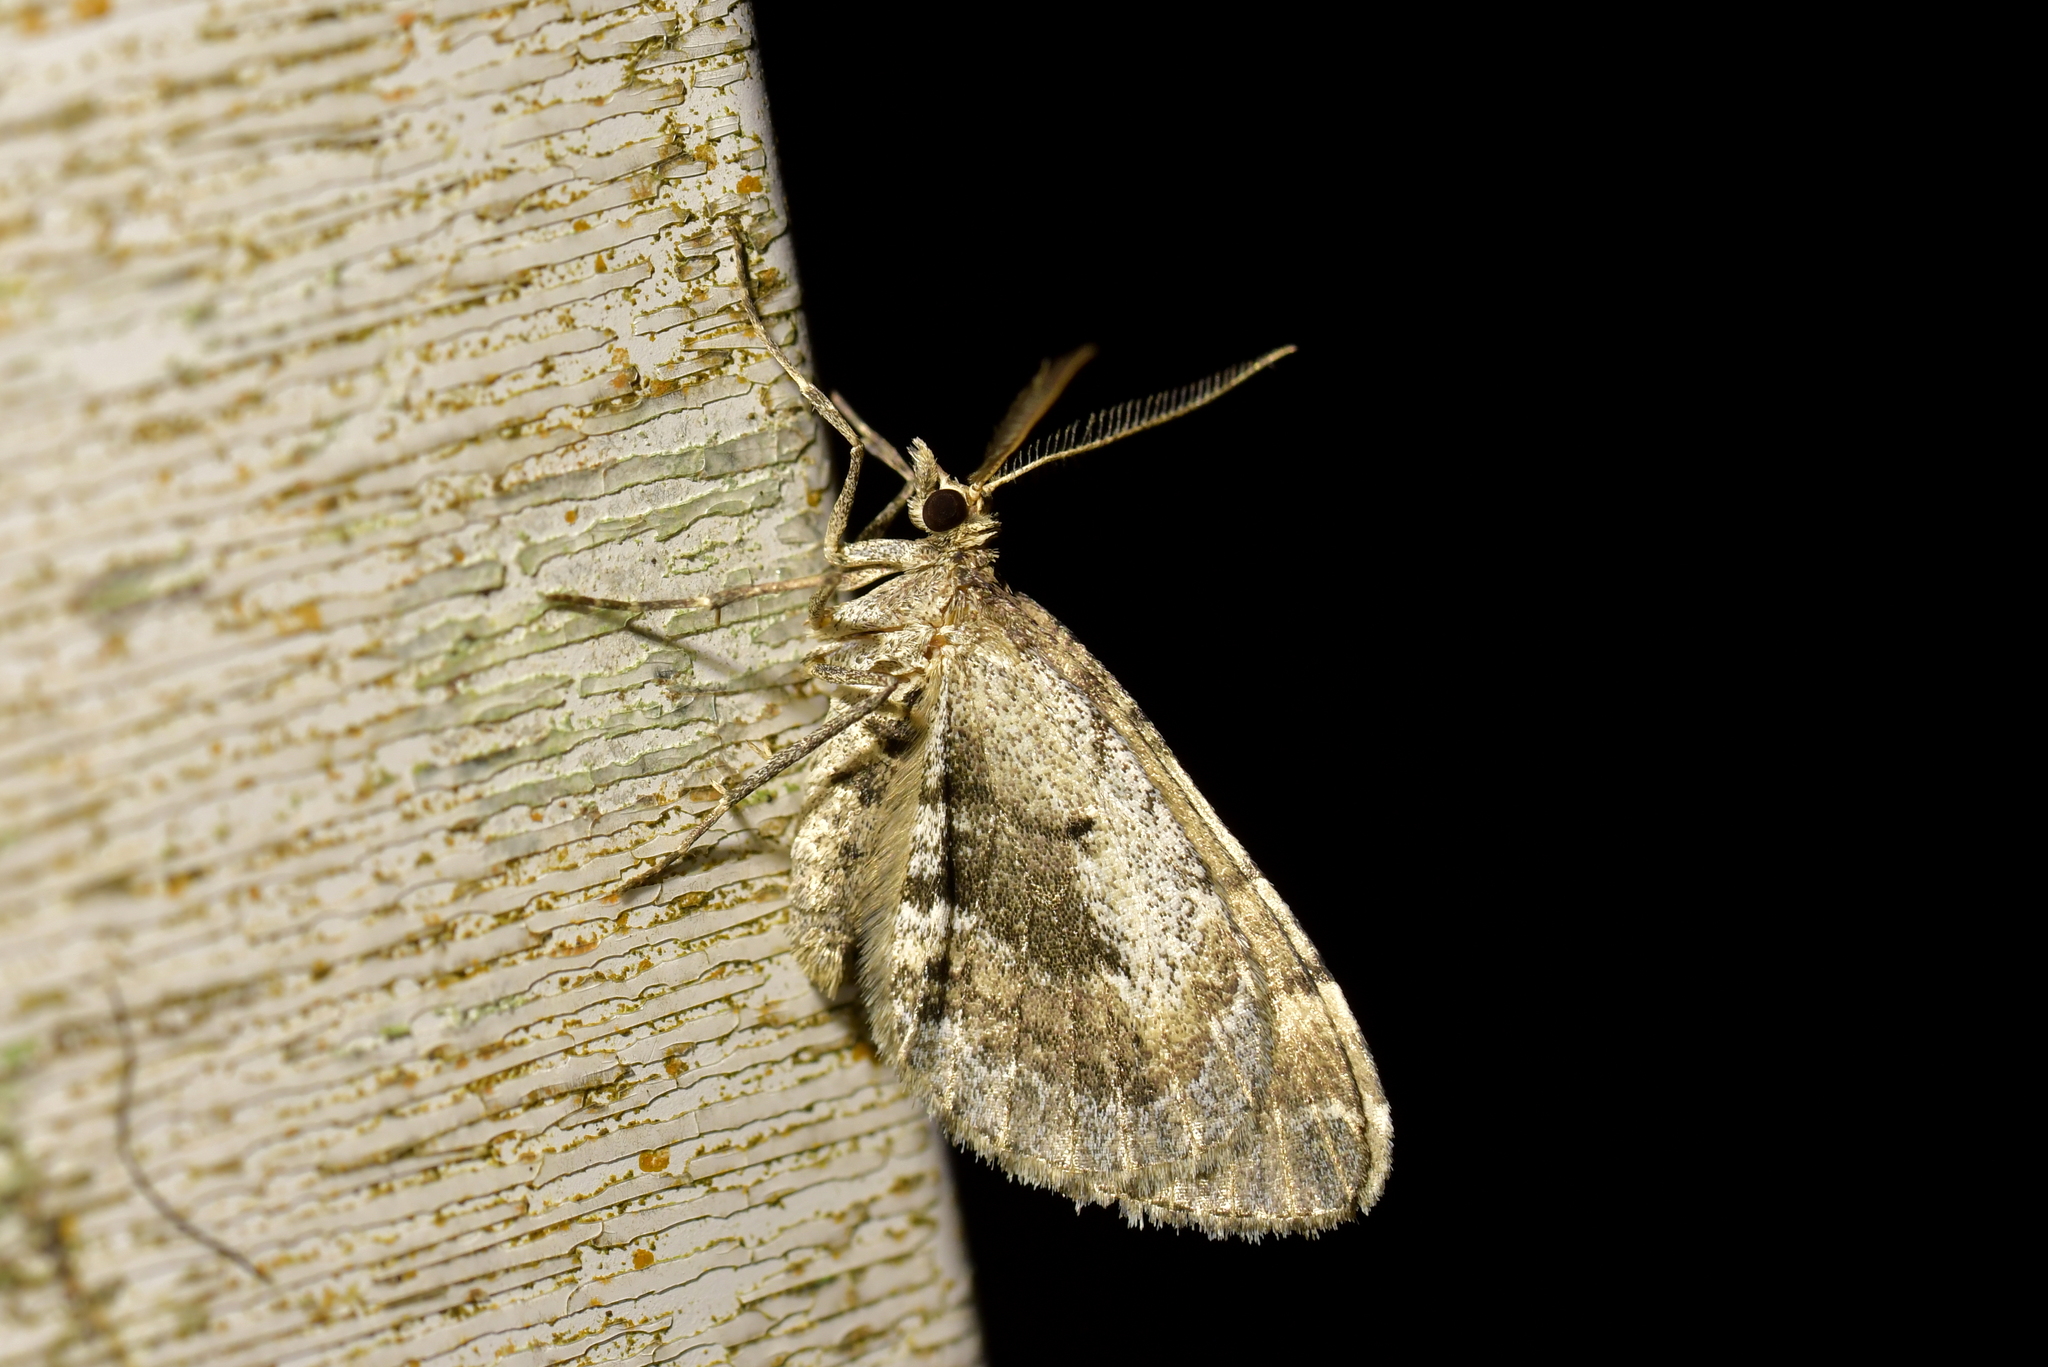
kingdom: Animalia
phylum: Arthropoda
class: Insecta
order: Lepidoptera
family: Geometridae
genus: Asaphodes
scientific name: Asaphodes aegrota
